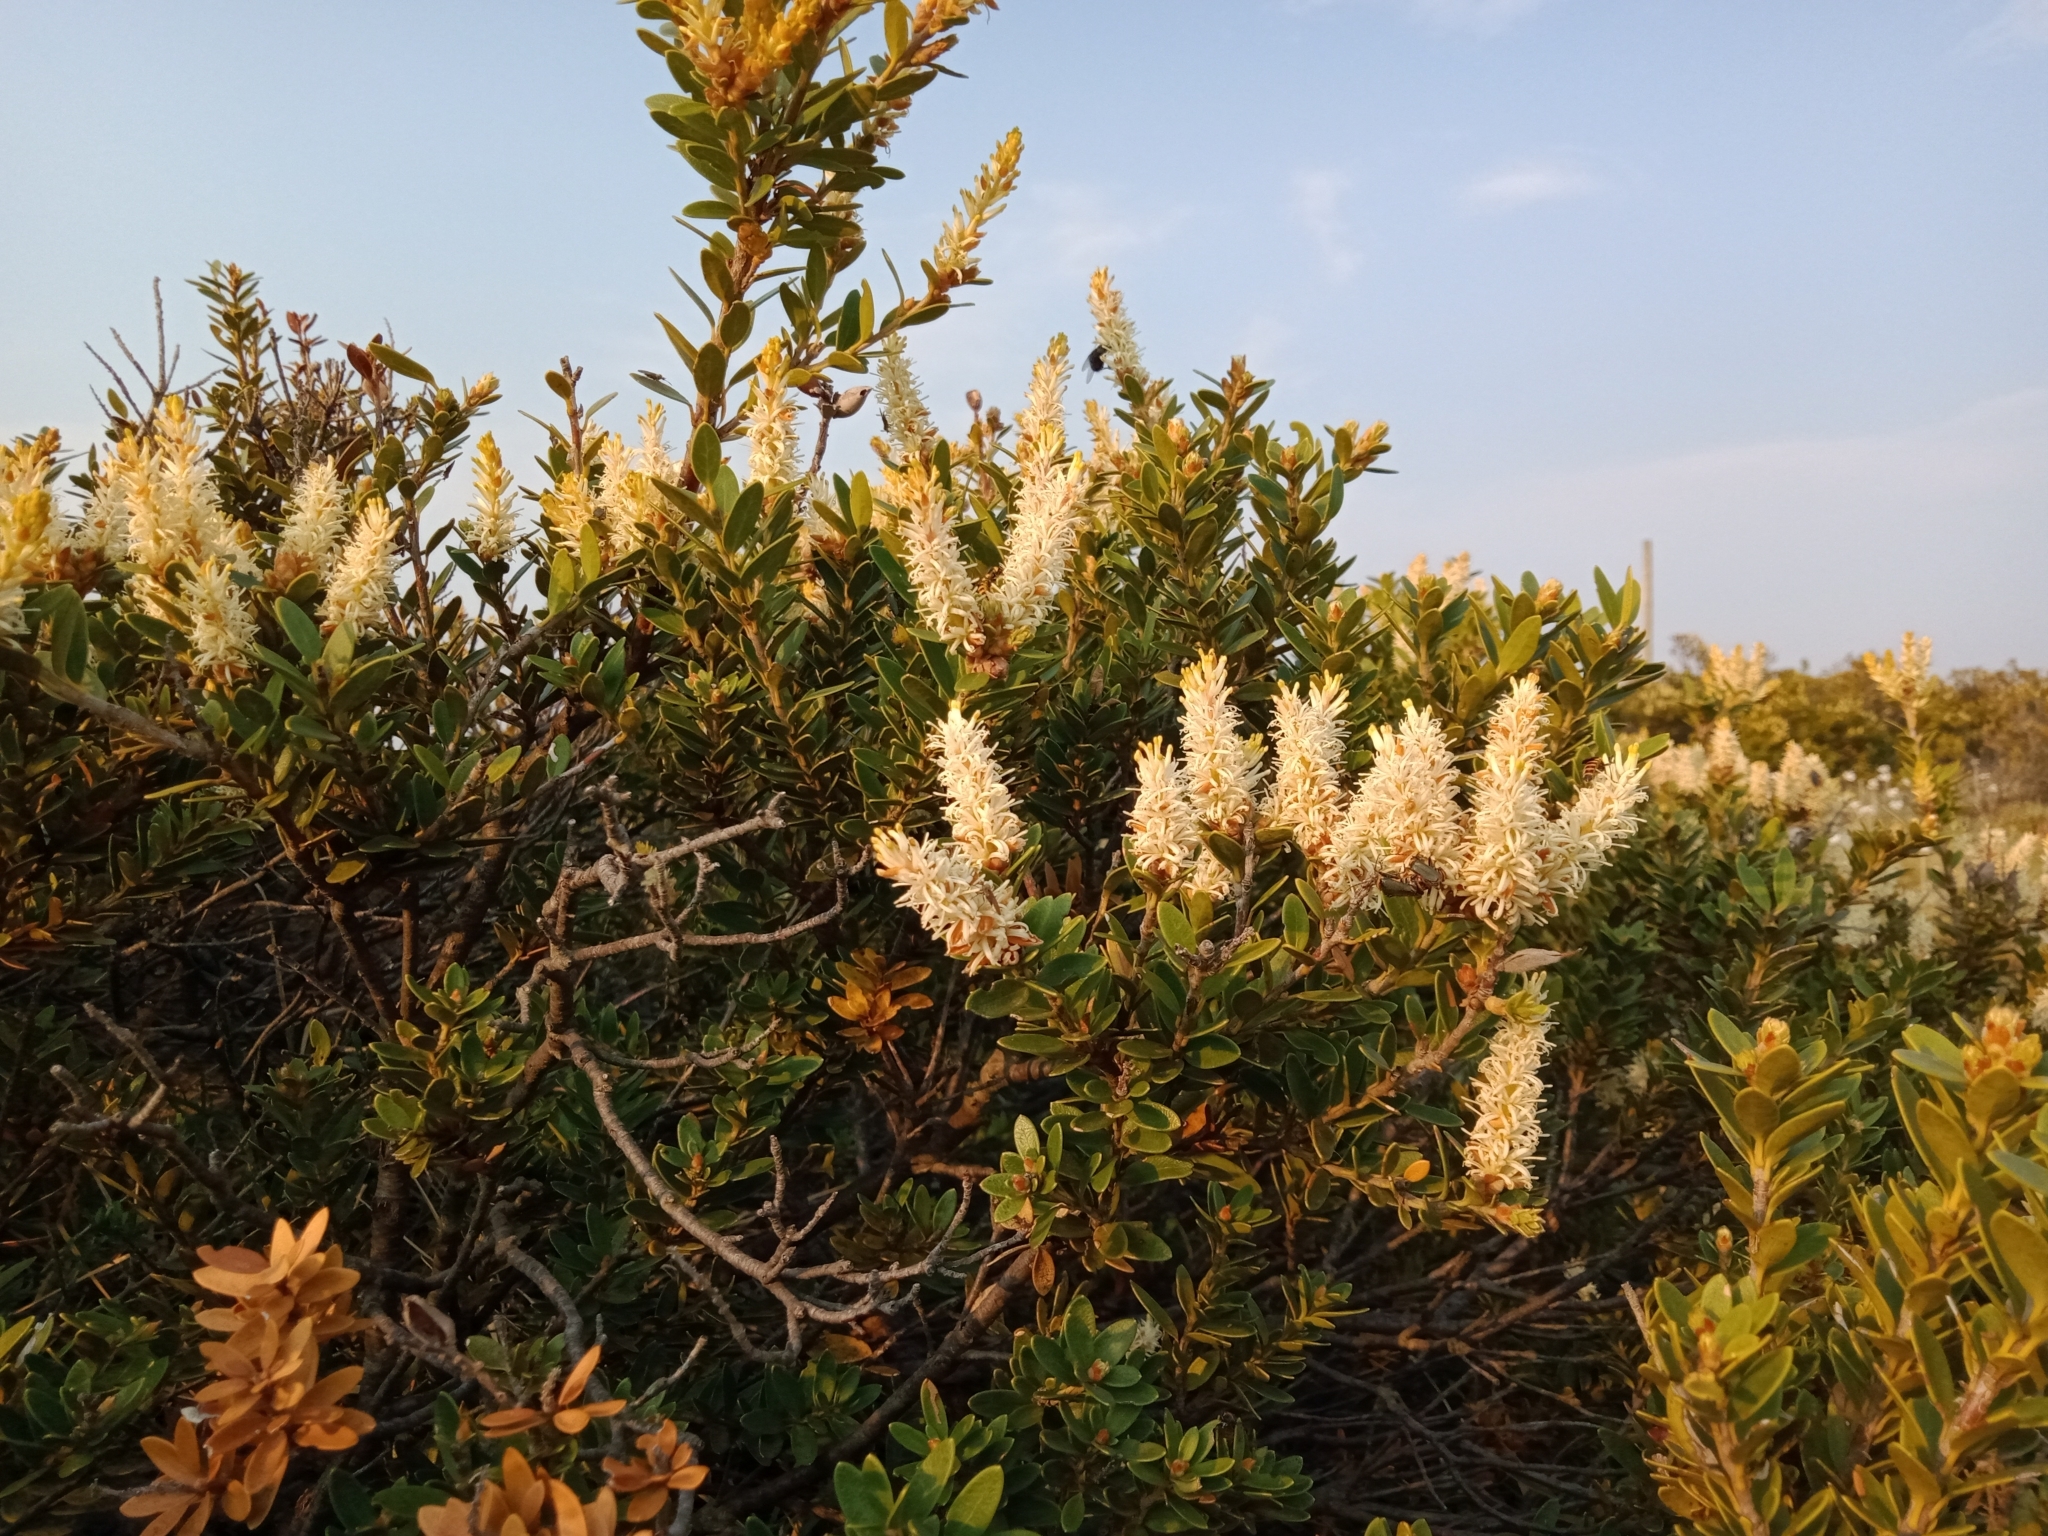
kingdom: Plantae
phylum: Tracheophyta
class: Magnoliopsida
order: Proteales
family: Proteaceae
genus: Orites
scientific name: Orites lancifolius
